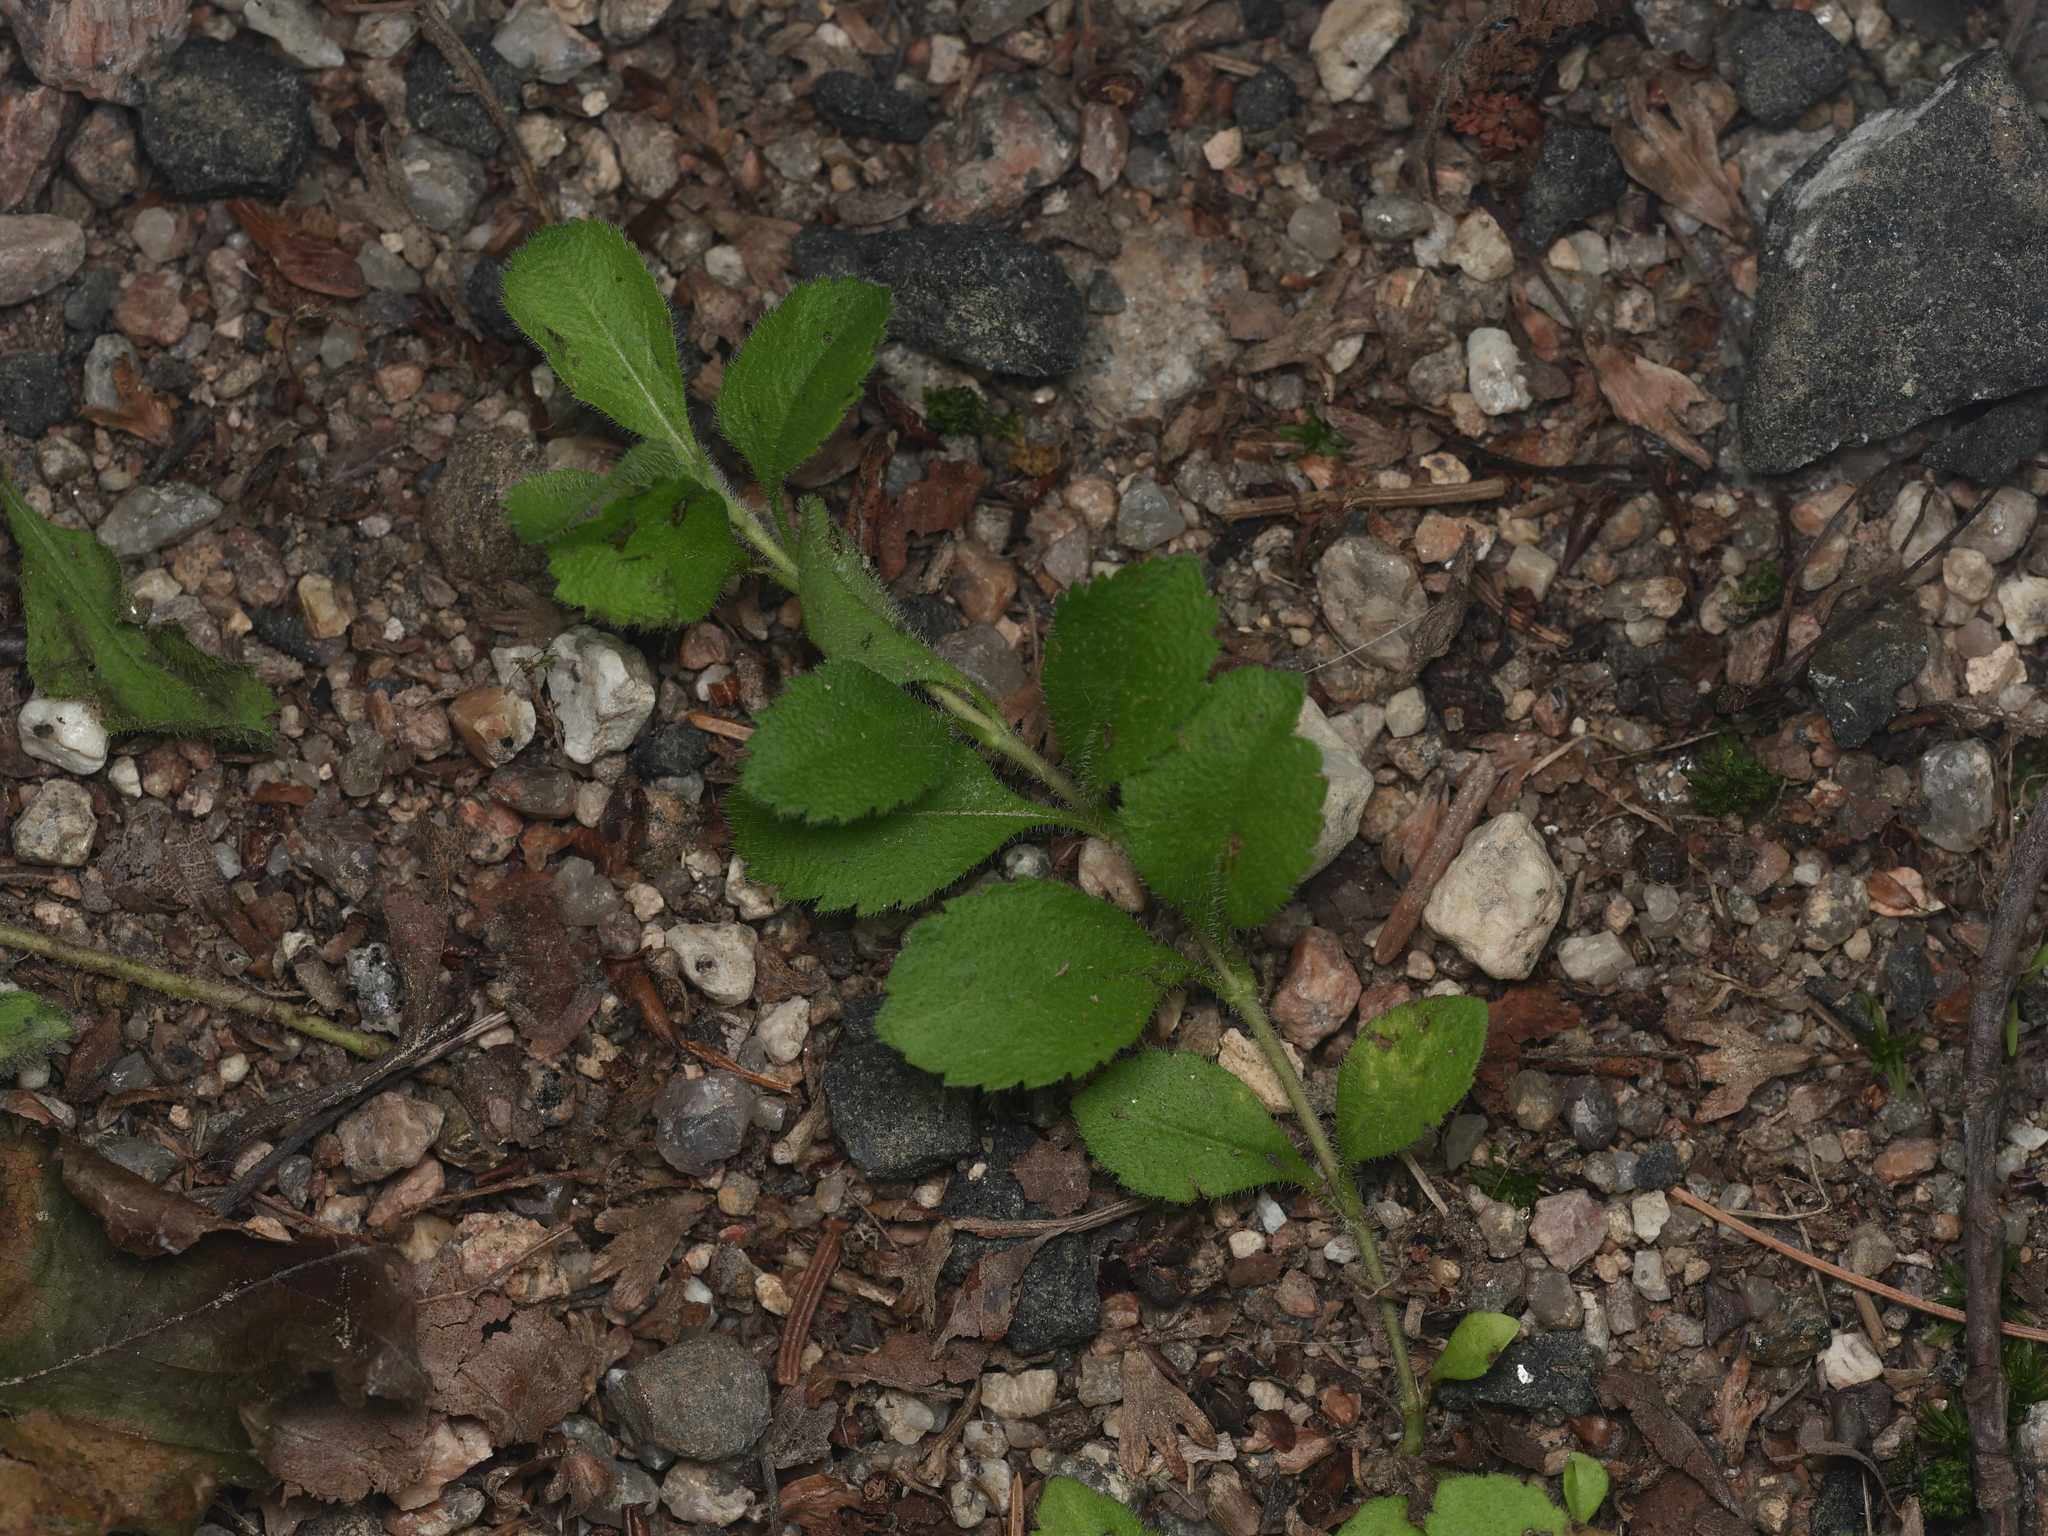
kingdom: Plantae
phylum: Tracheophyta
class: Magnoliopsida
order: Lamiales
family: Plantaginaceae
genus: Veronica
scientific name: Veronica officinalis
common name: Common speedwell
